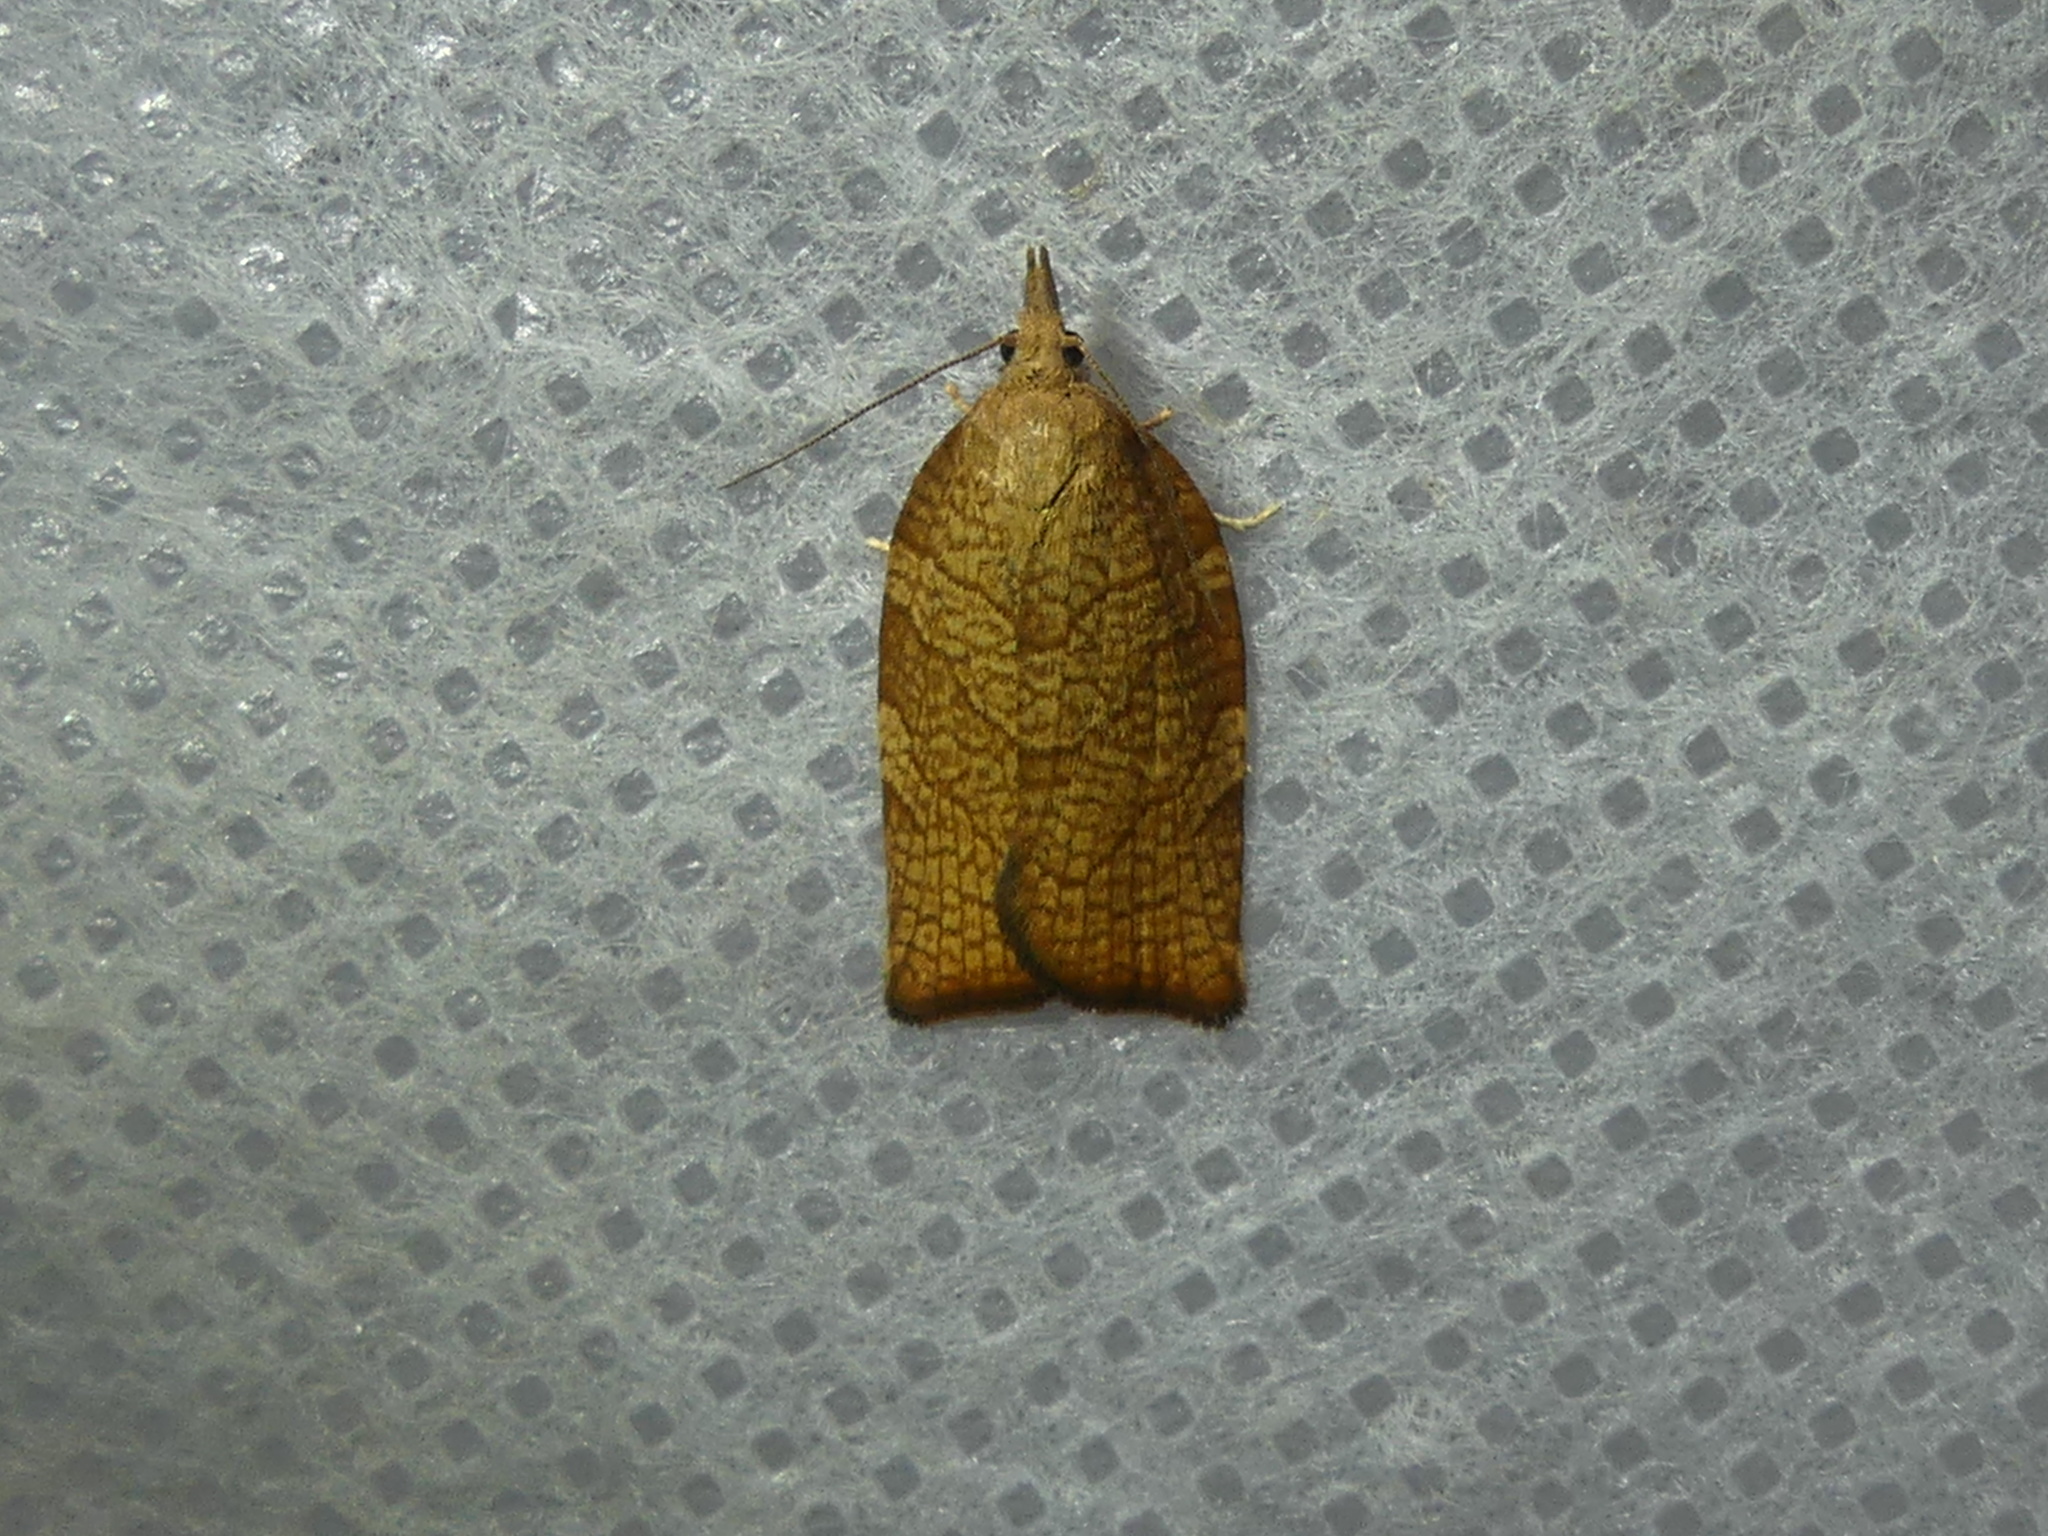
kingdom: Animalia
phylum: Arthropoda
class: Insecta
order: Lepidoptera
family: Tortricidae
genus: Pandemis
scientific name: Pandemis corylana
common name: Chequered fruit-tree tortrix
